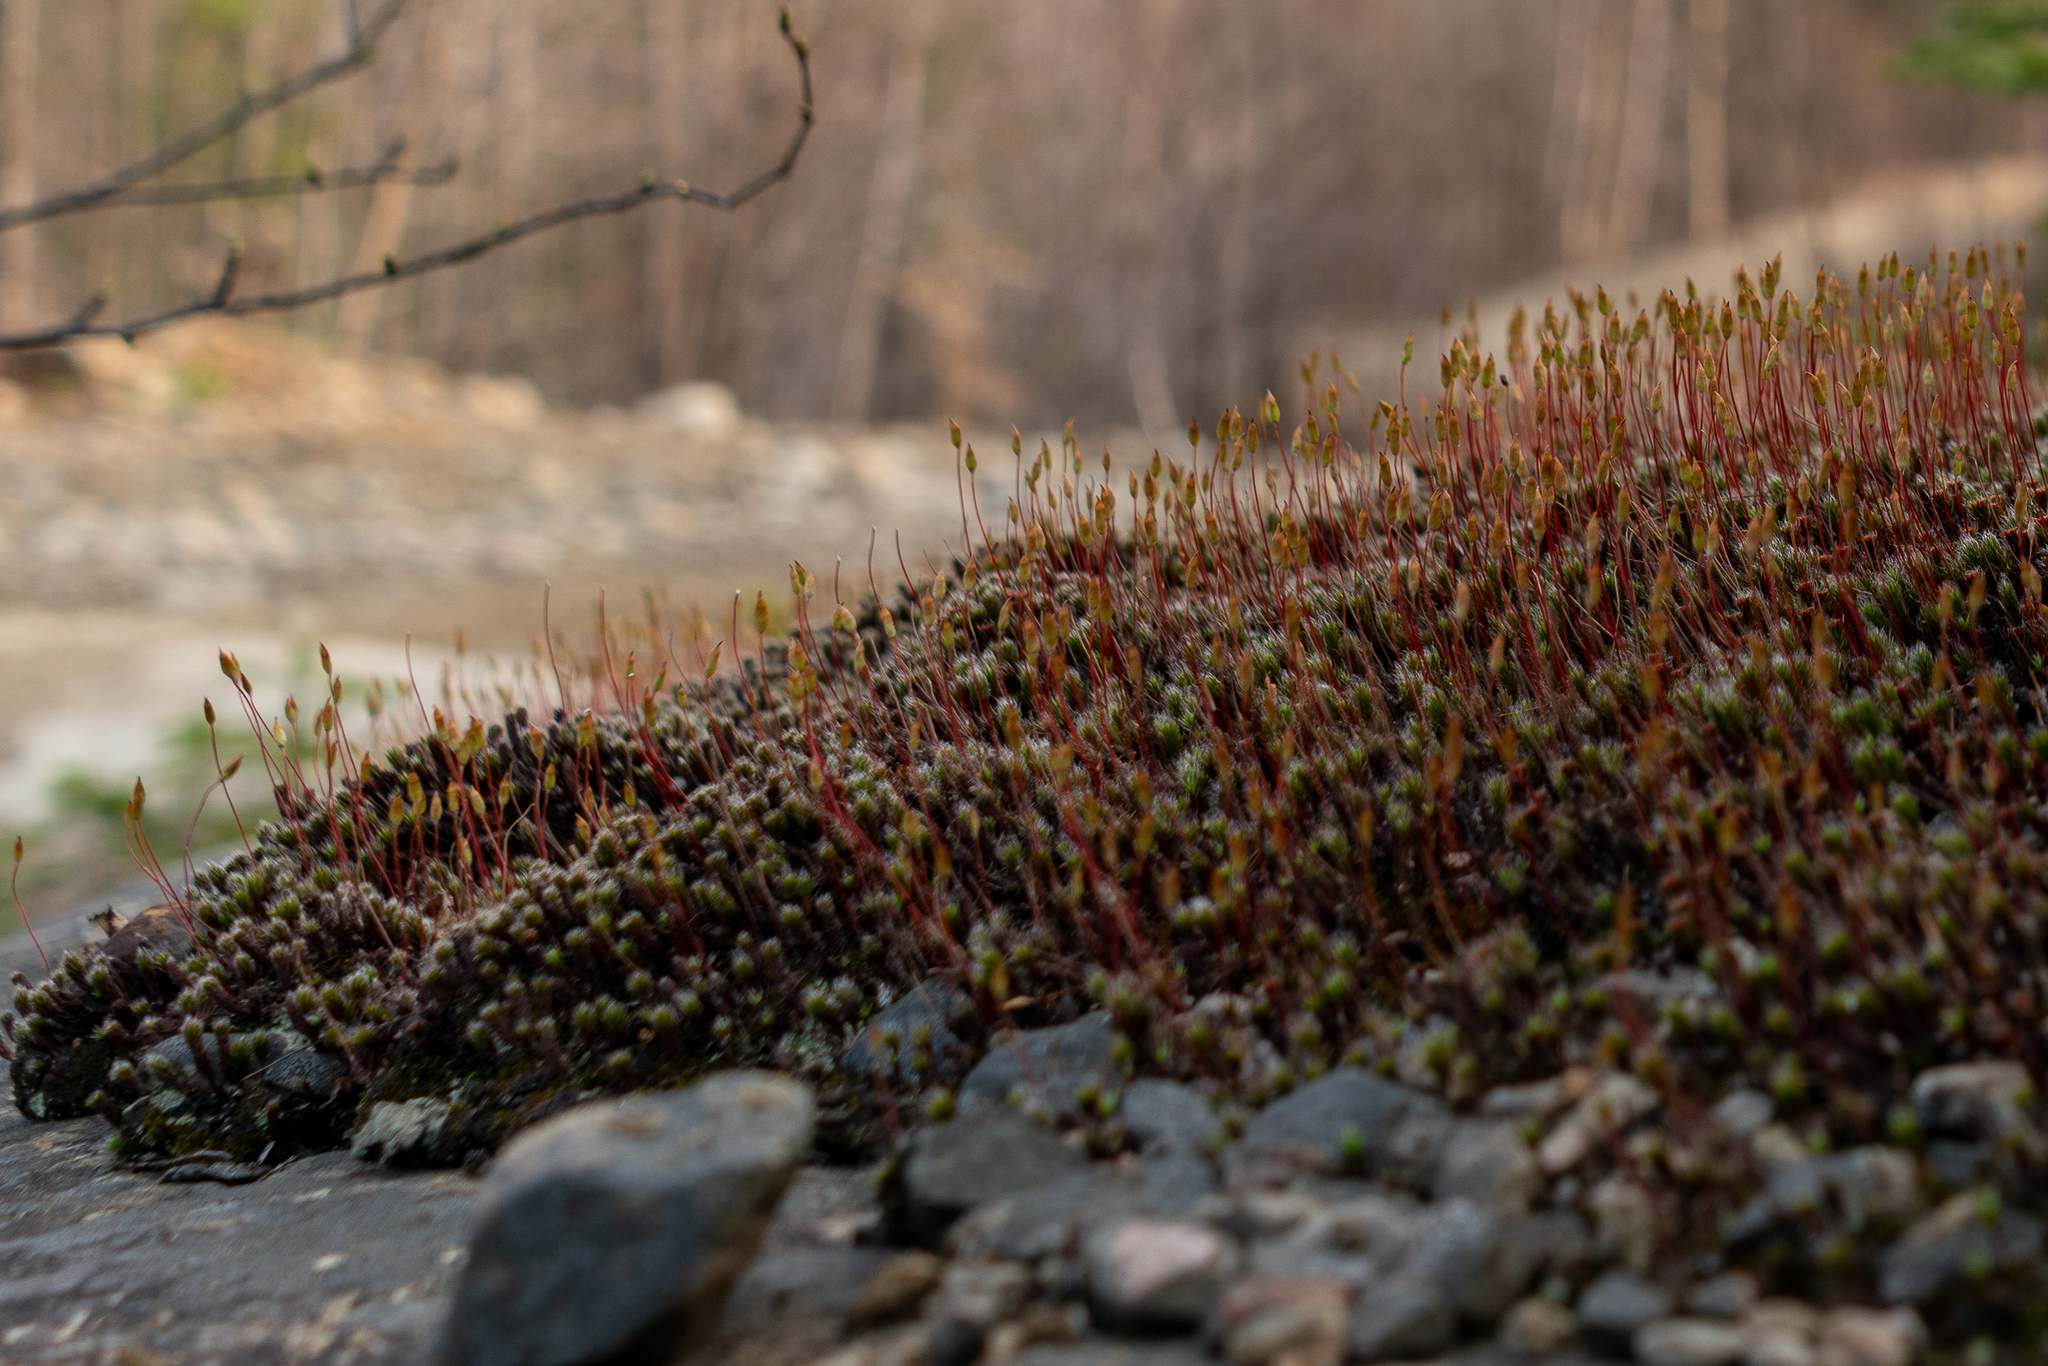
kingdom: Plantae
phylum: Bryophyta
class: Polytrichopsida
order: Polytrichales
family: Polytrichaceae
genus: Polytrichum
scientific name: Polytrichum piliferum
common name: Bristly haircap
